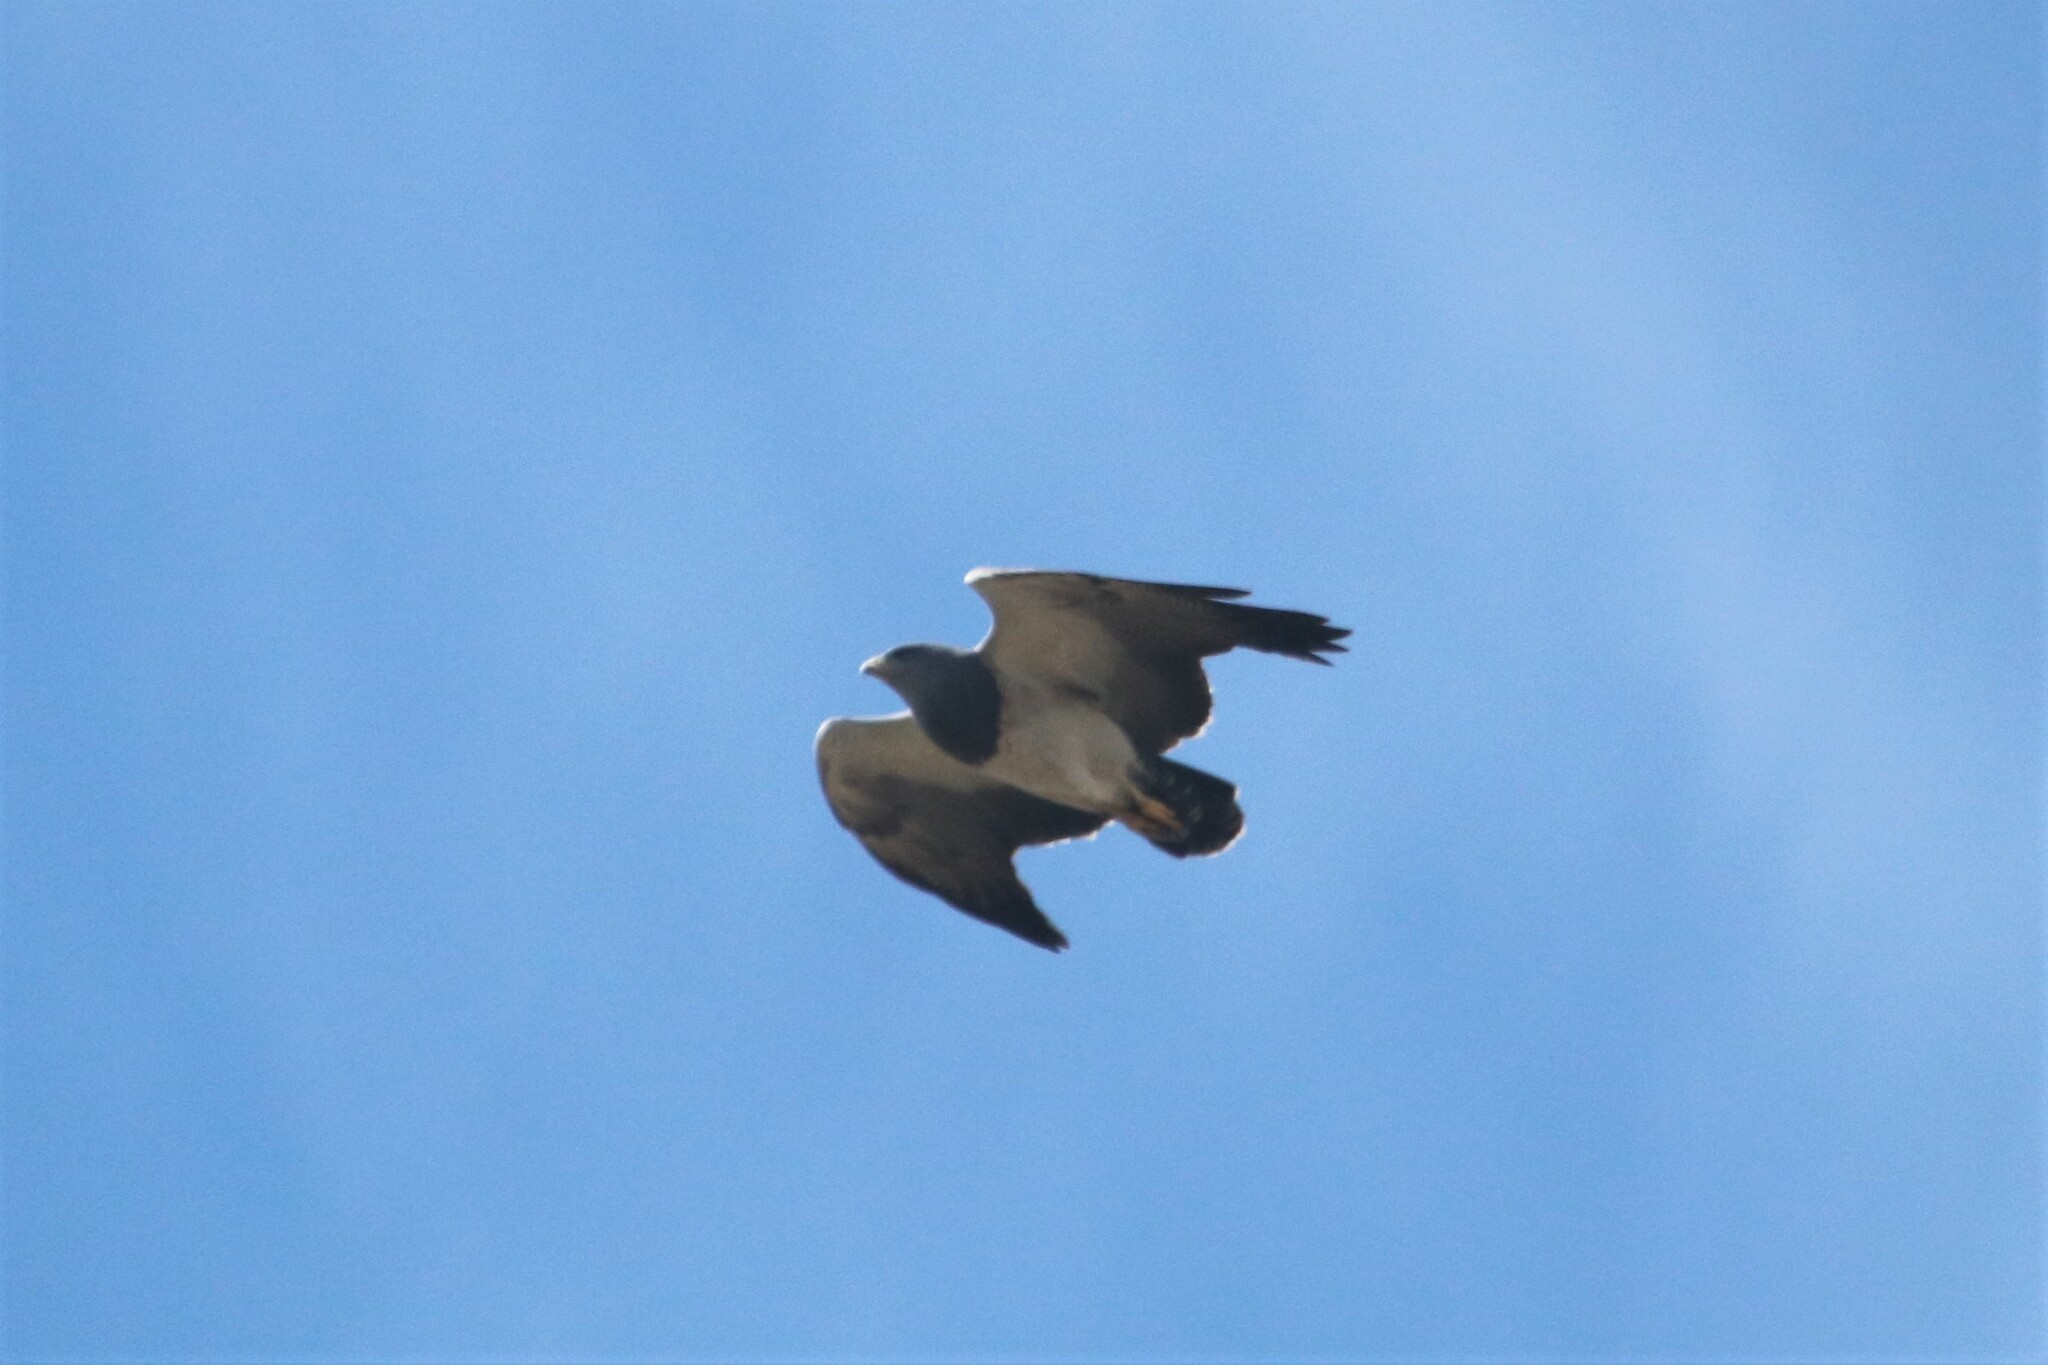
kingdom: Animalia
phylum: Chordata
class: Aves
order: Accipitriformes
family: Accipitridae
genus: Geranoaetus
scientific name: Geranoaetus melanoleucus
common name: Black-chested buzzard-eagle
